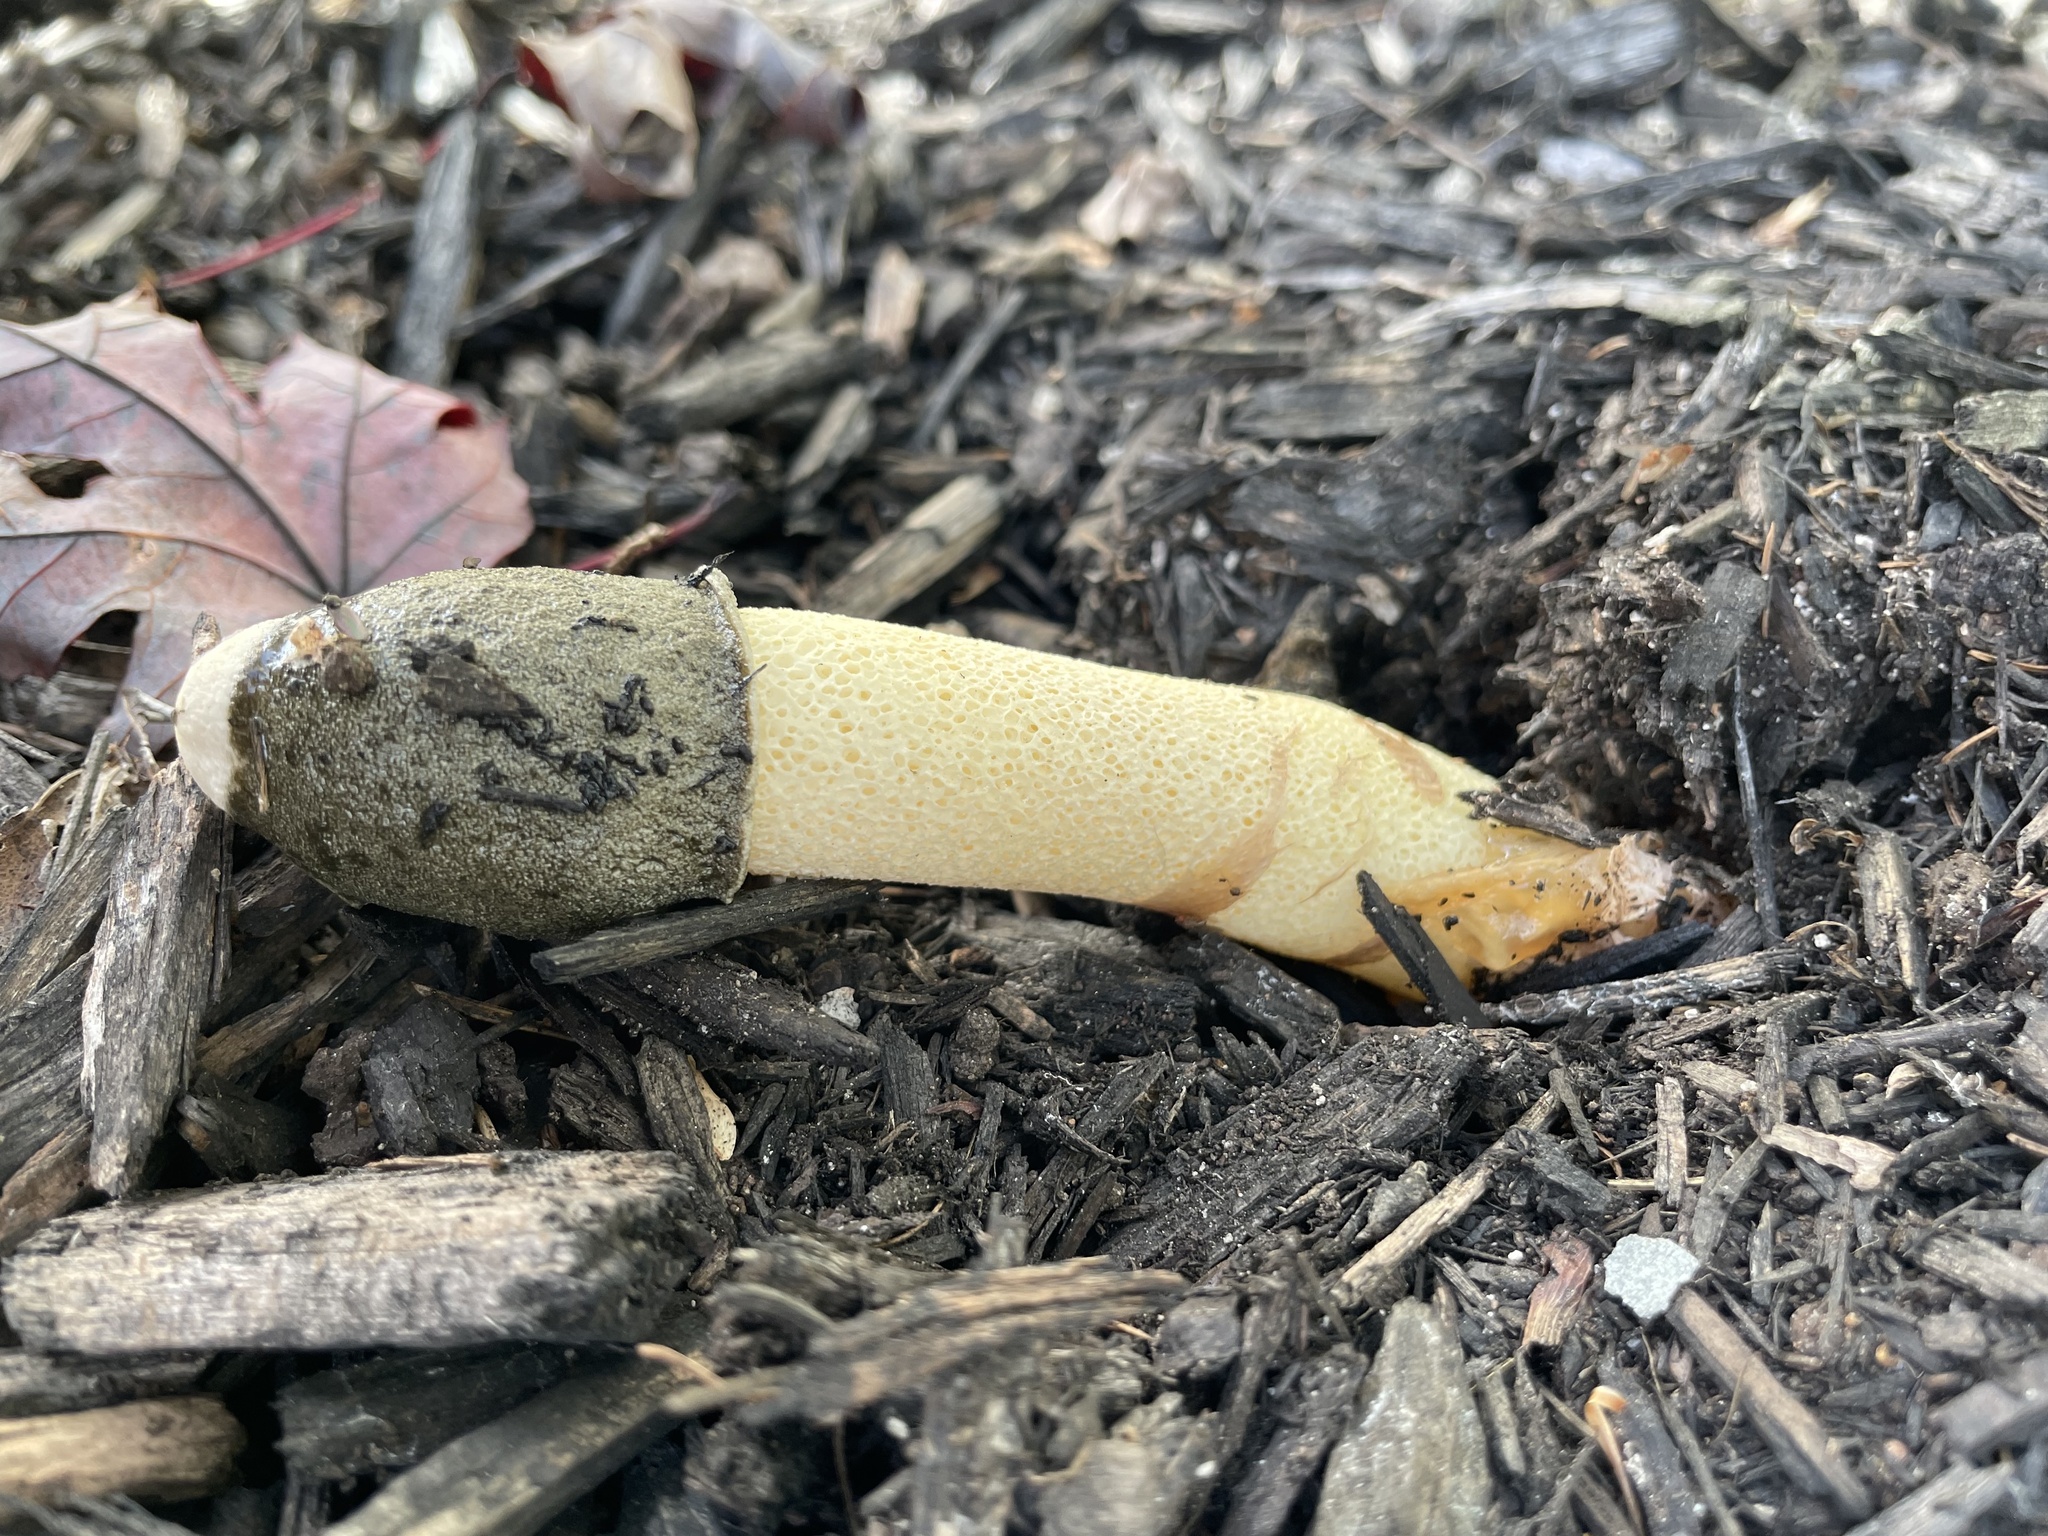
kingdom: Fungi
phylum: Basidiomycota
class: Agaricomycetes
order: Phallales
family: Phallaceae
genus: Phallus
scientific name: Phallus ravenelii
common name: Ravenel's stinkhorn
